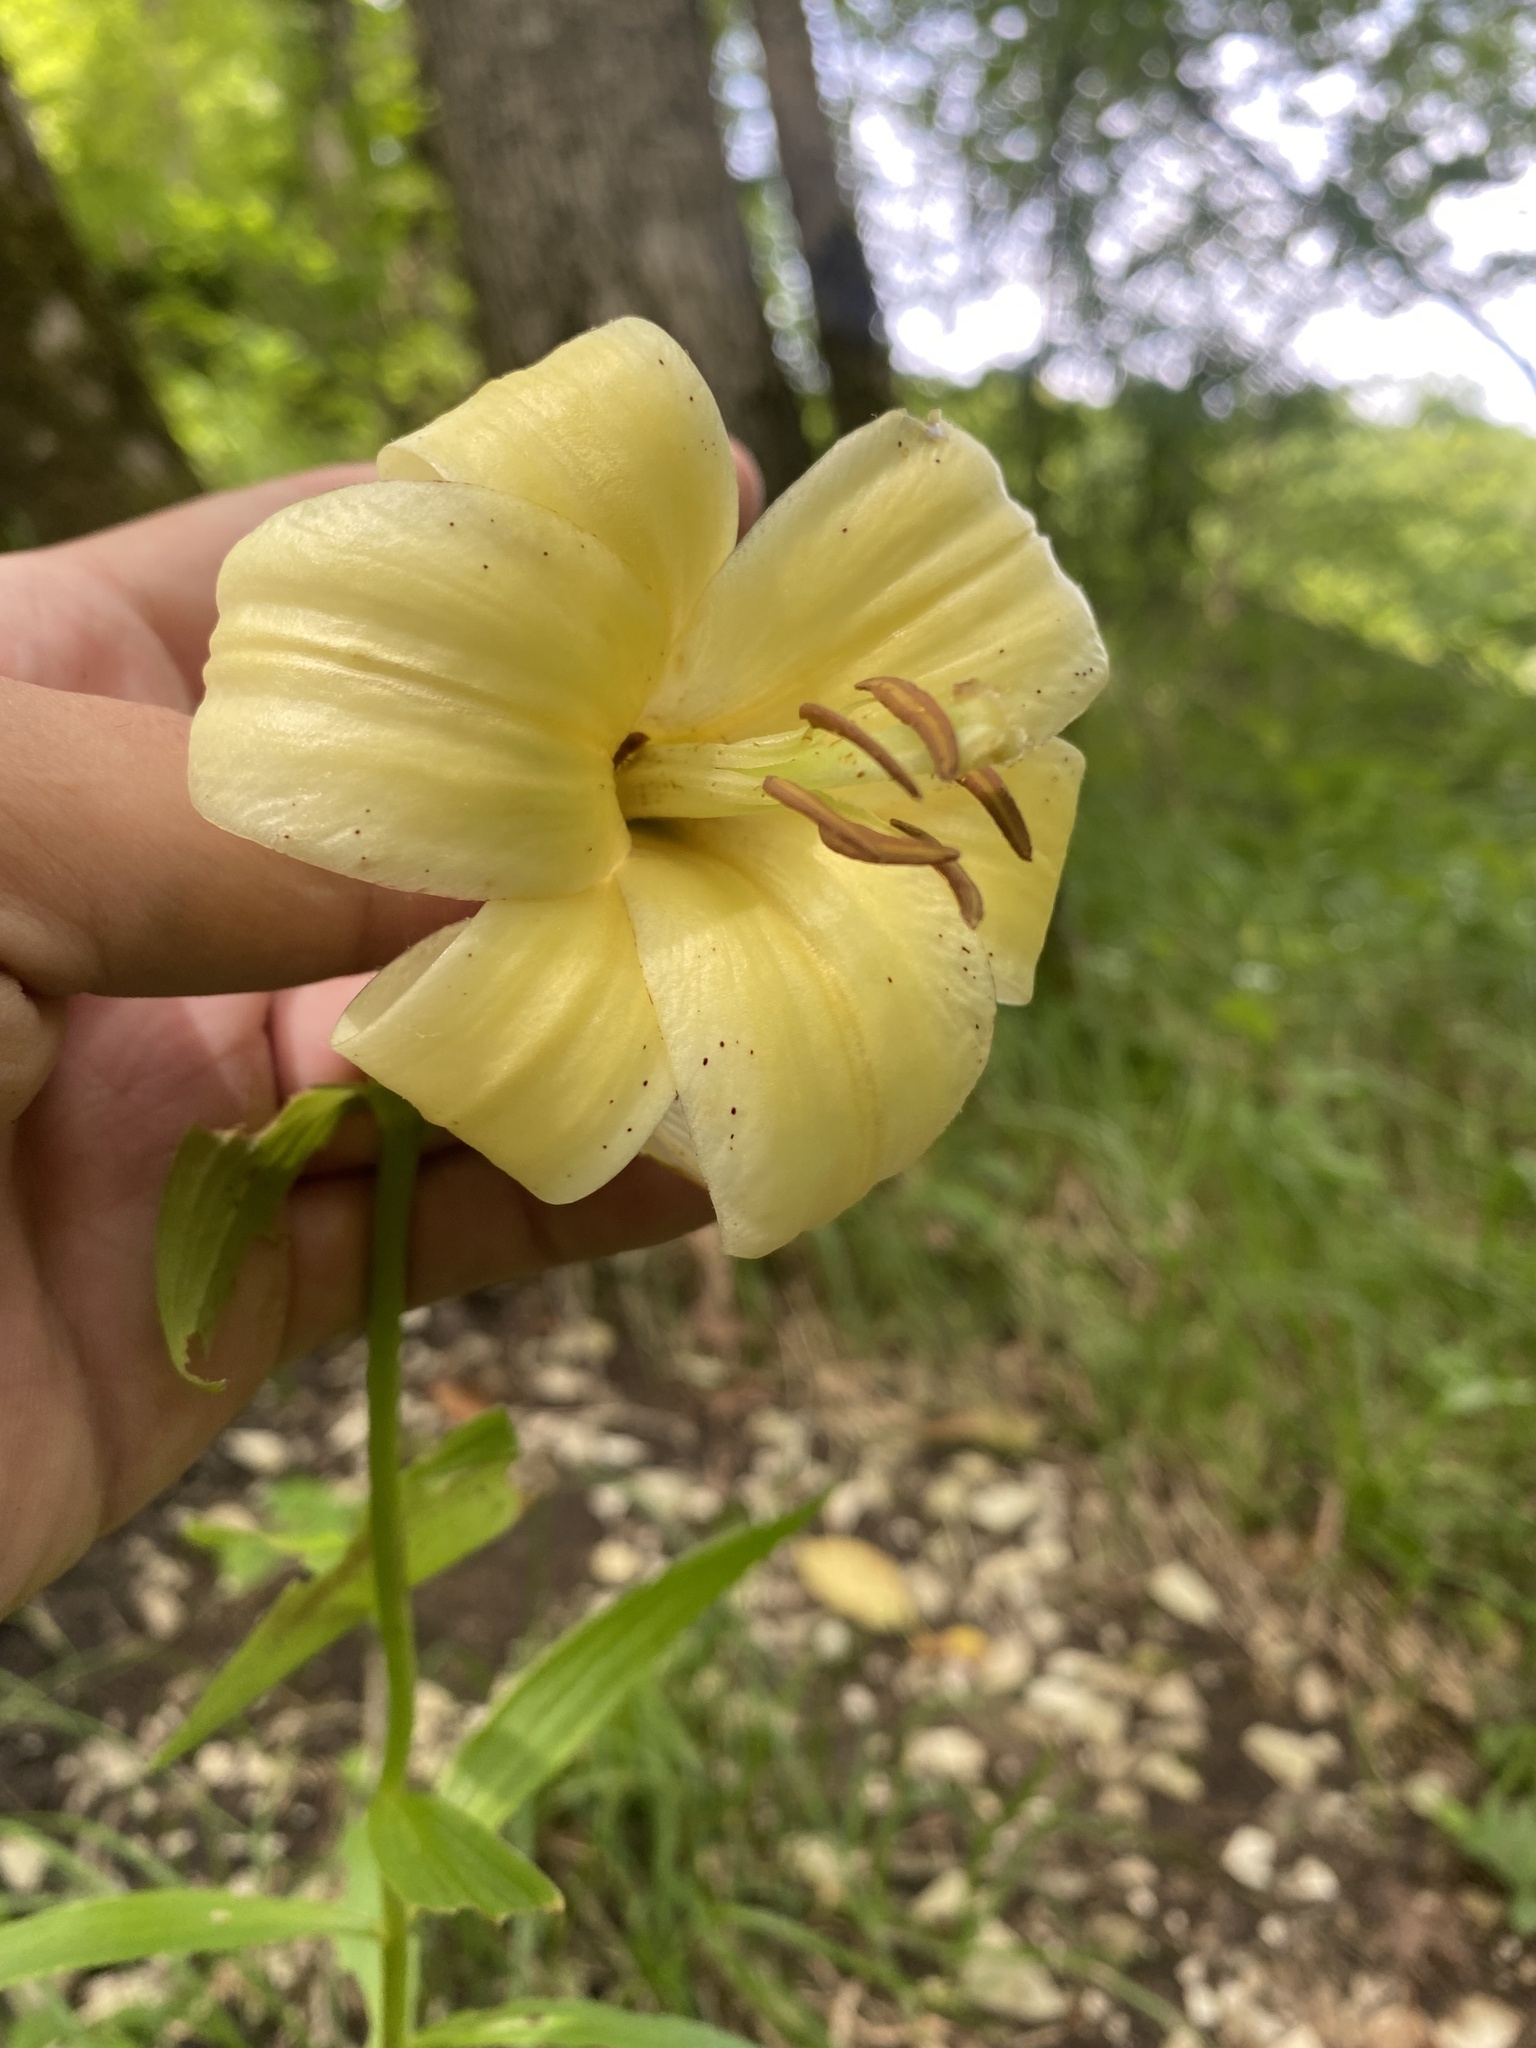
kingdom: Plantae
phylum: Tracheophyta
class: Liliopsida
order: Liliales
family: Liliaceae
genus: Lilium
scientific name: Lilium monadelphum
